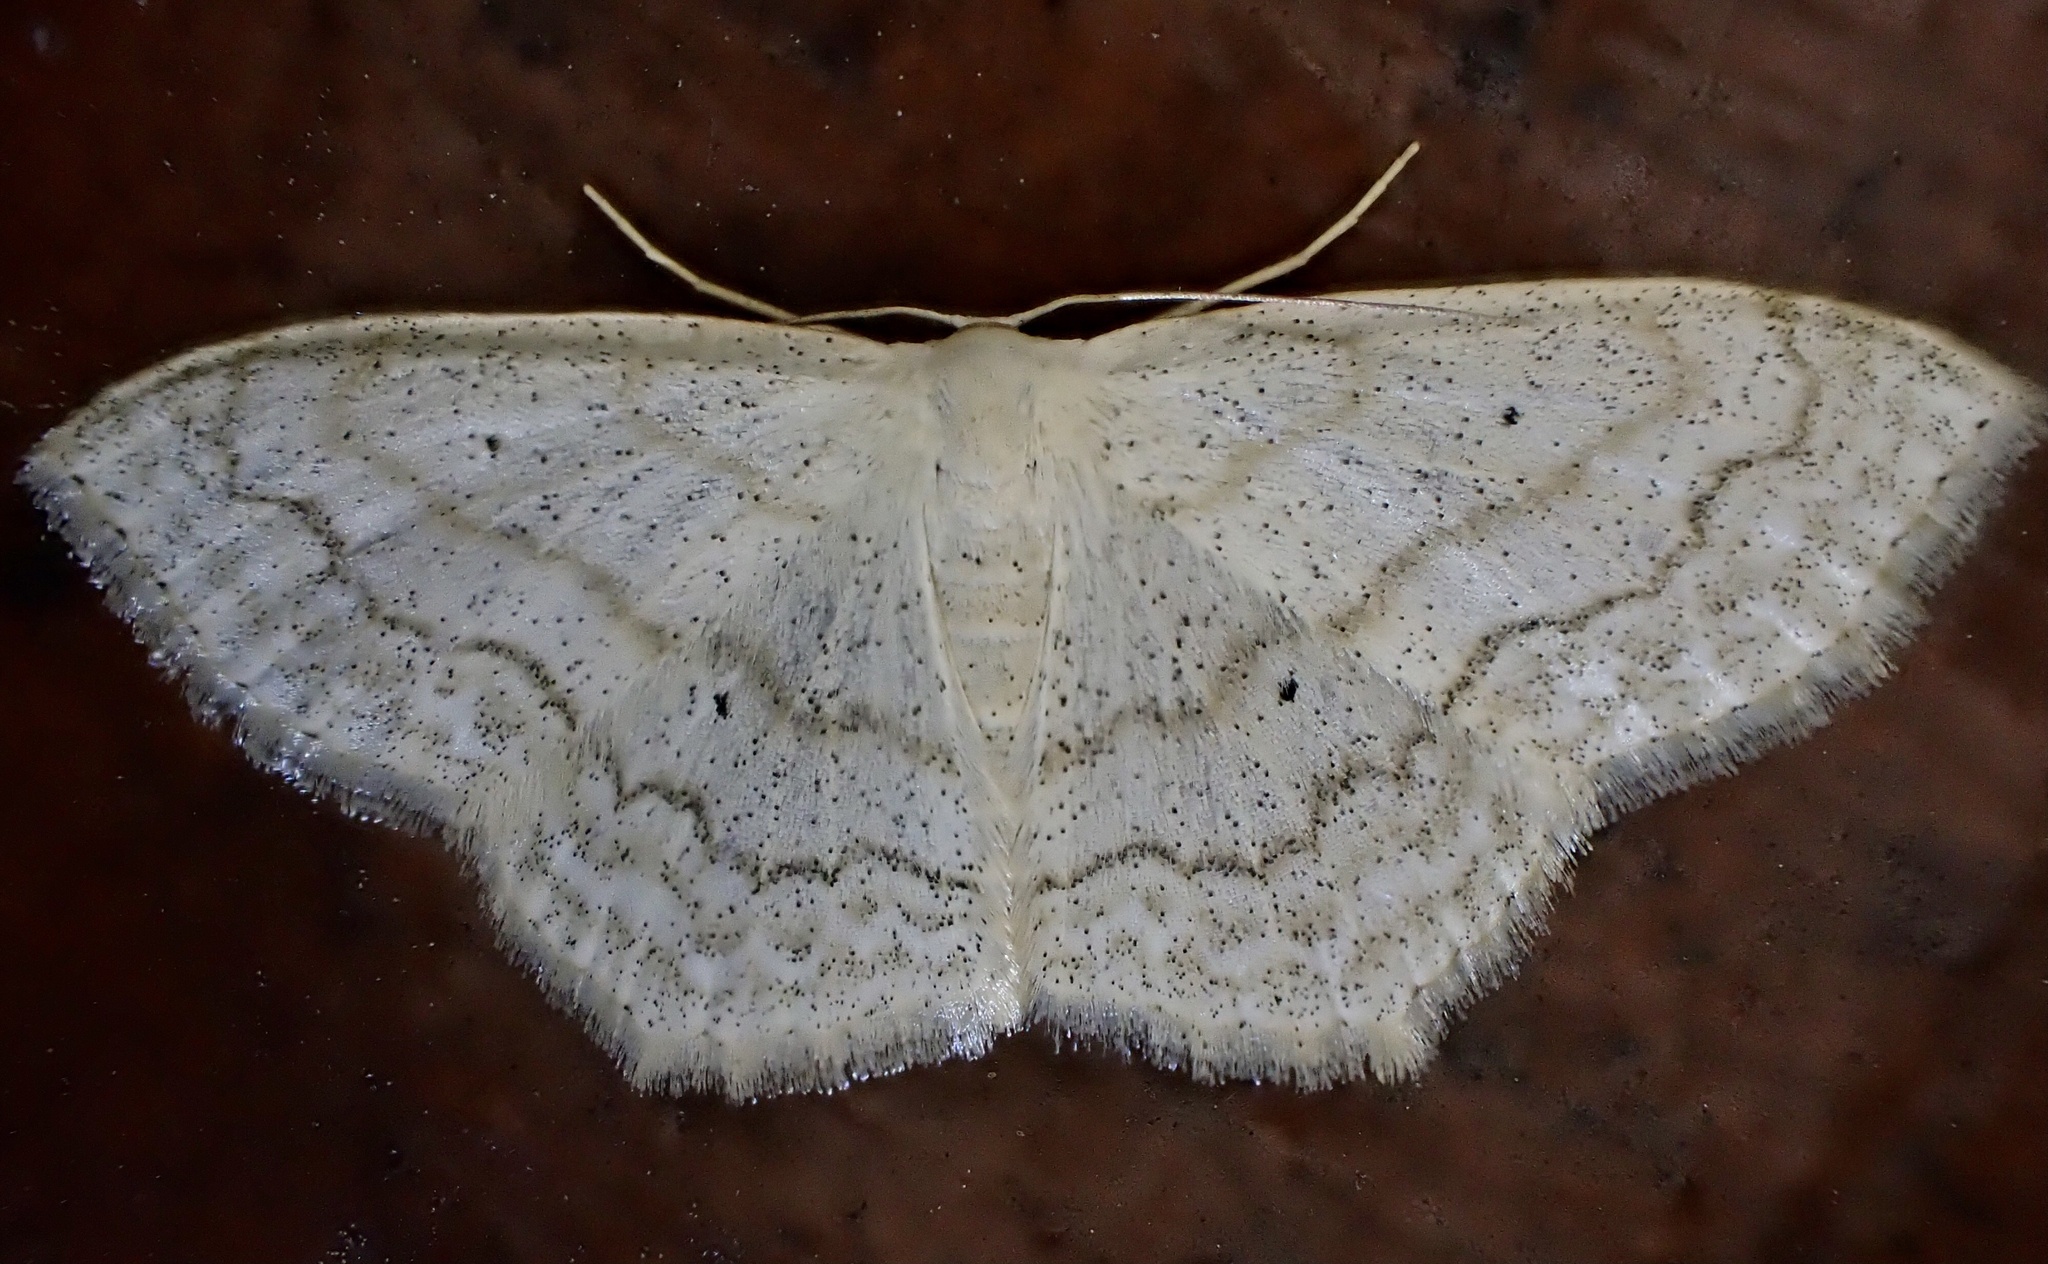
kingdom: Animalia
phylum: Arthropoda
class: Insecta
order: Lepidoptera
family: Geometridae
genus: Scopula
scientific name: Scopula limboundata
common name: Large lace border
